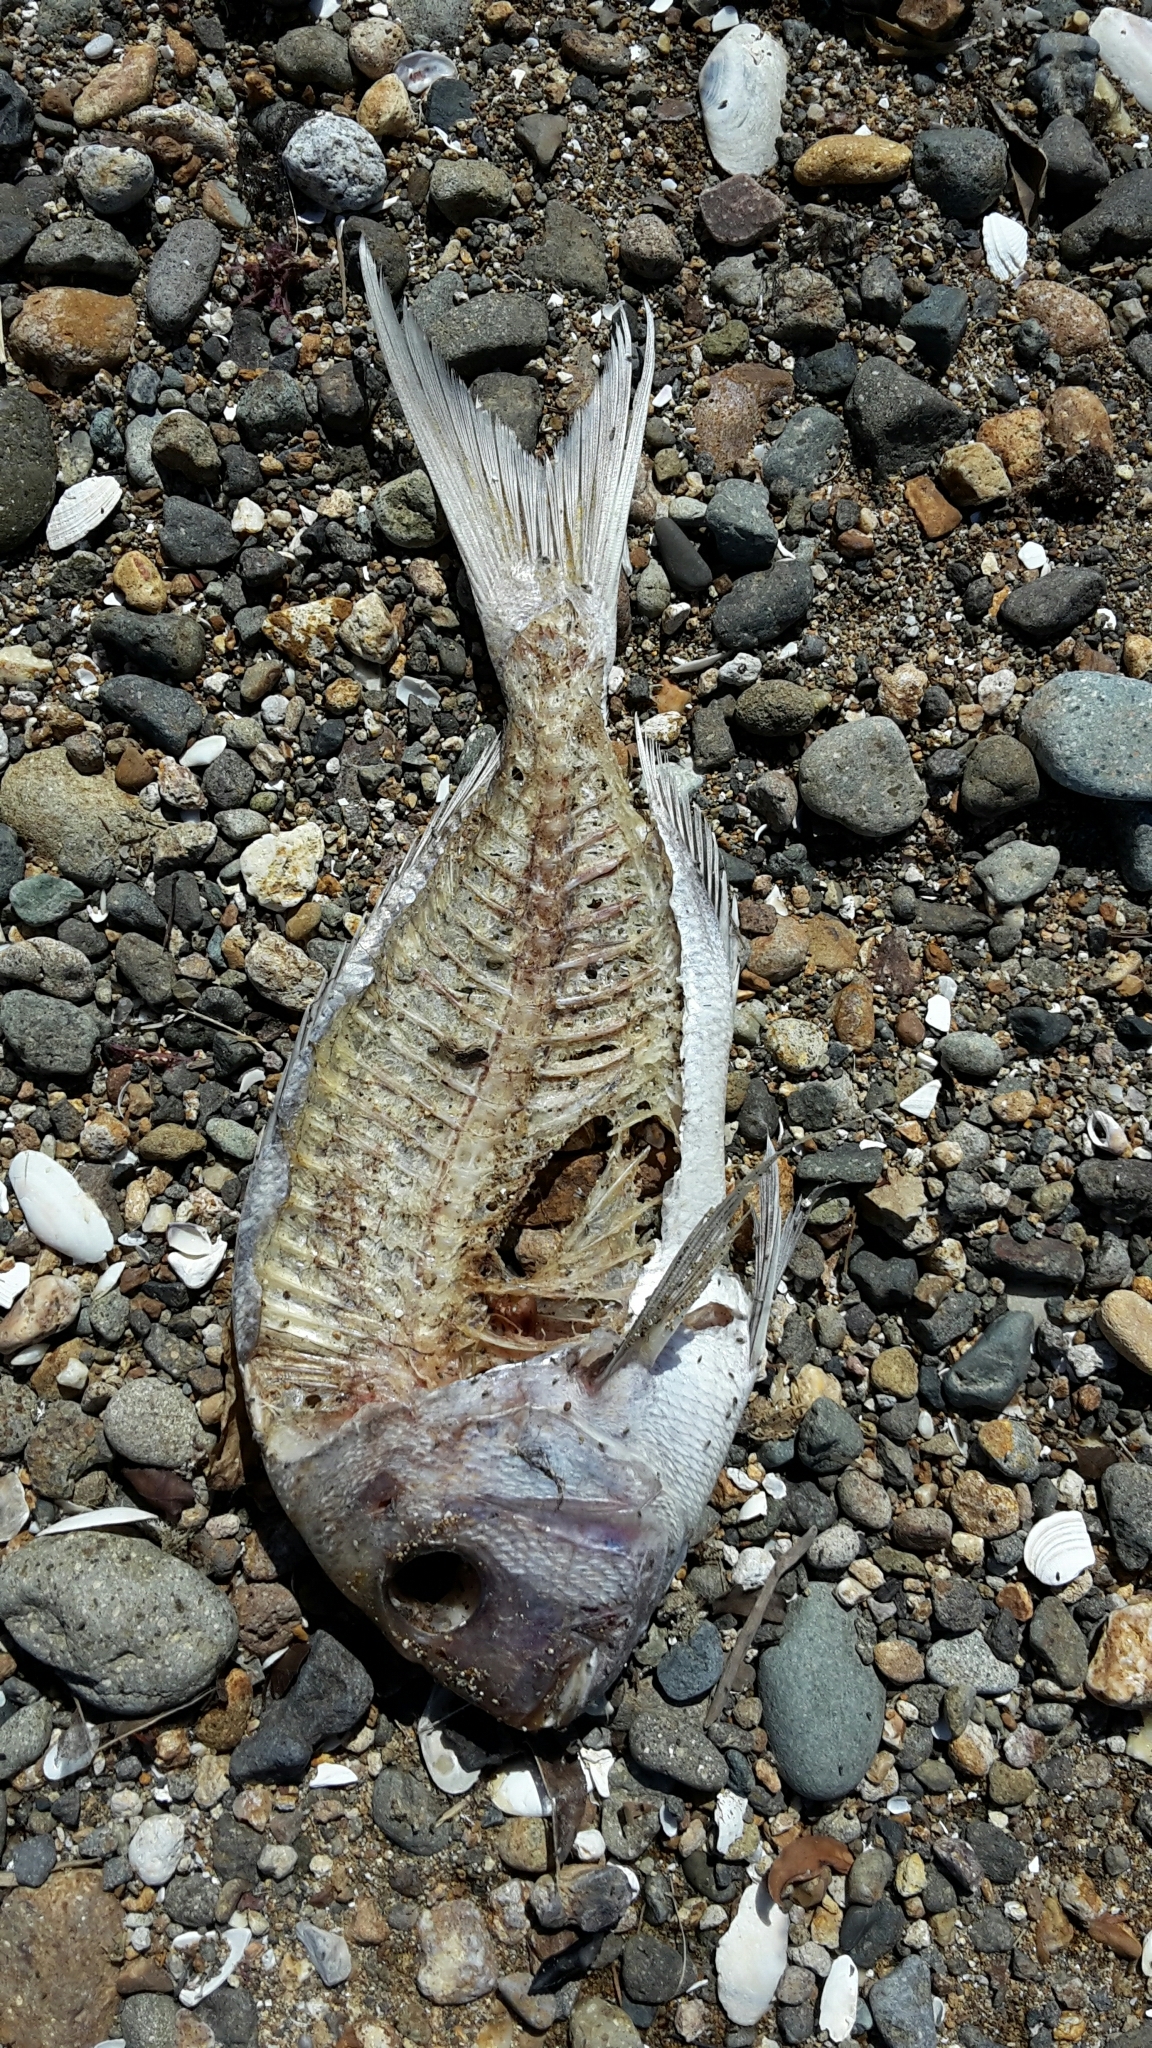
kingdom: Animalia
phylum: Chordata
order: Perciformes
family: Sparidae
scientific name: Sparidae
